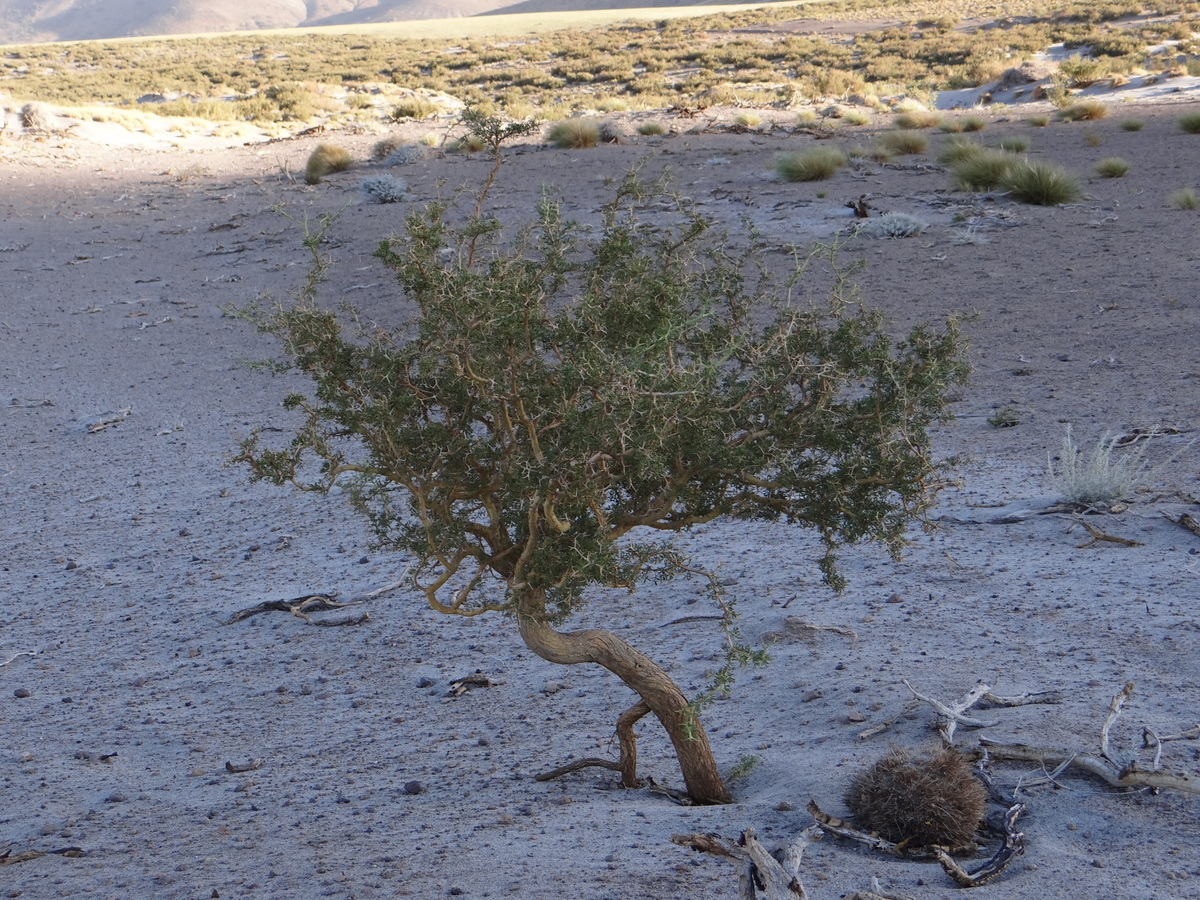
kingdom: Plantae
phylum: Tracheophyta
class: Magnoliopsida
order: Fabales
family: Fabaceae
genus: Adesmia
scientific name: Adesmia volckmannii
